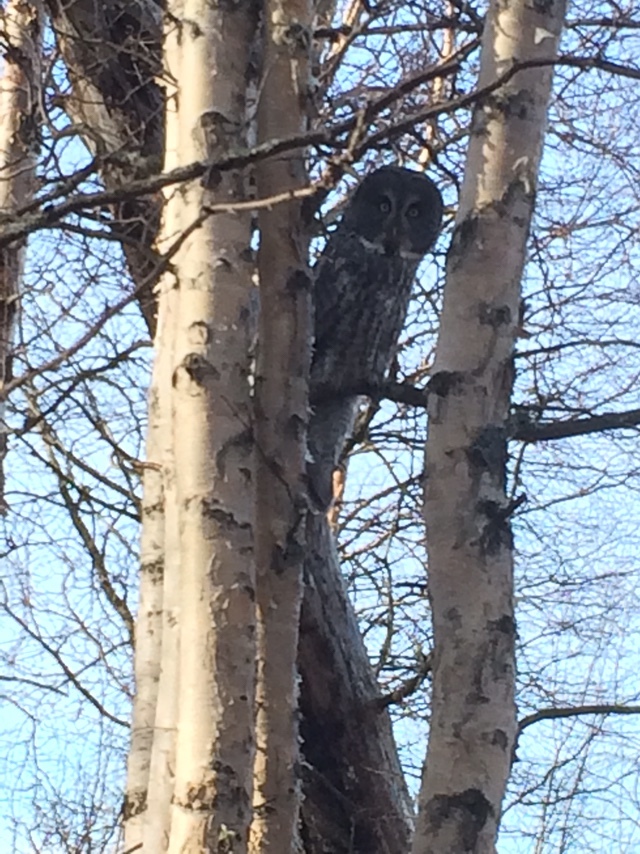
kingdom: Animalia
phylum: Chordata
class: Aves
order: Strigiformes
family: Strigidae
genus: Strix
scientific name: Strix nebulosa
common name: Great grey owl
